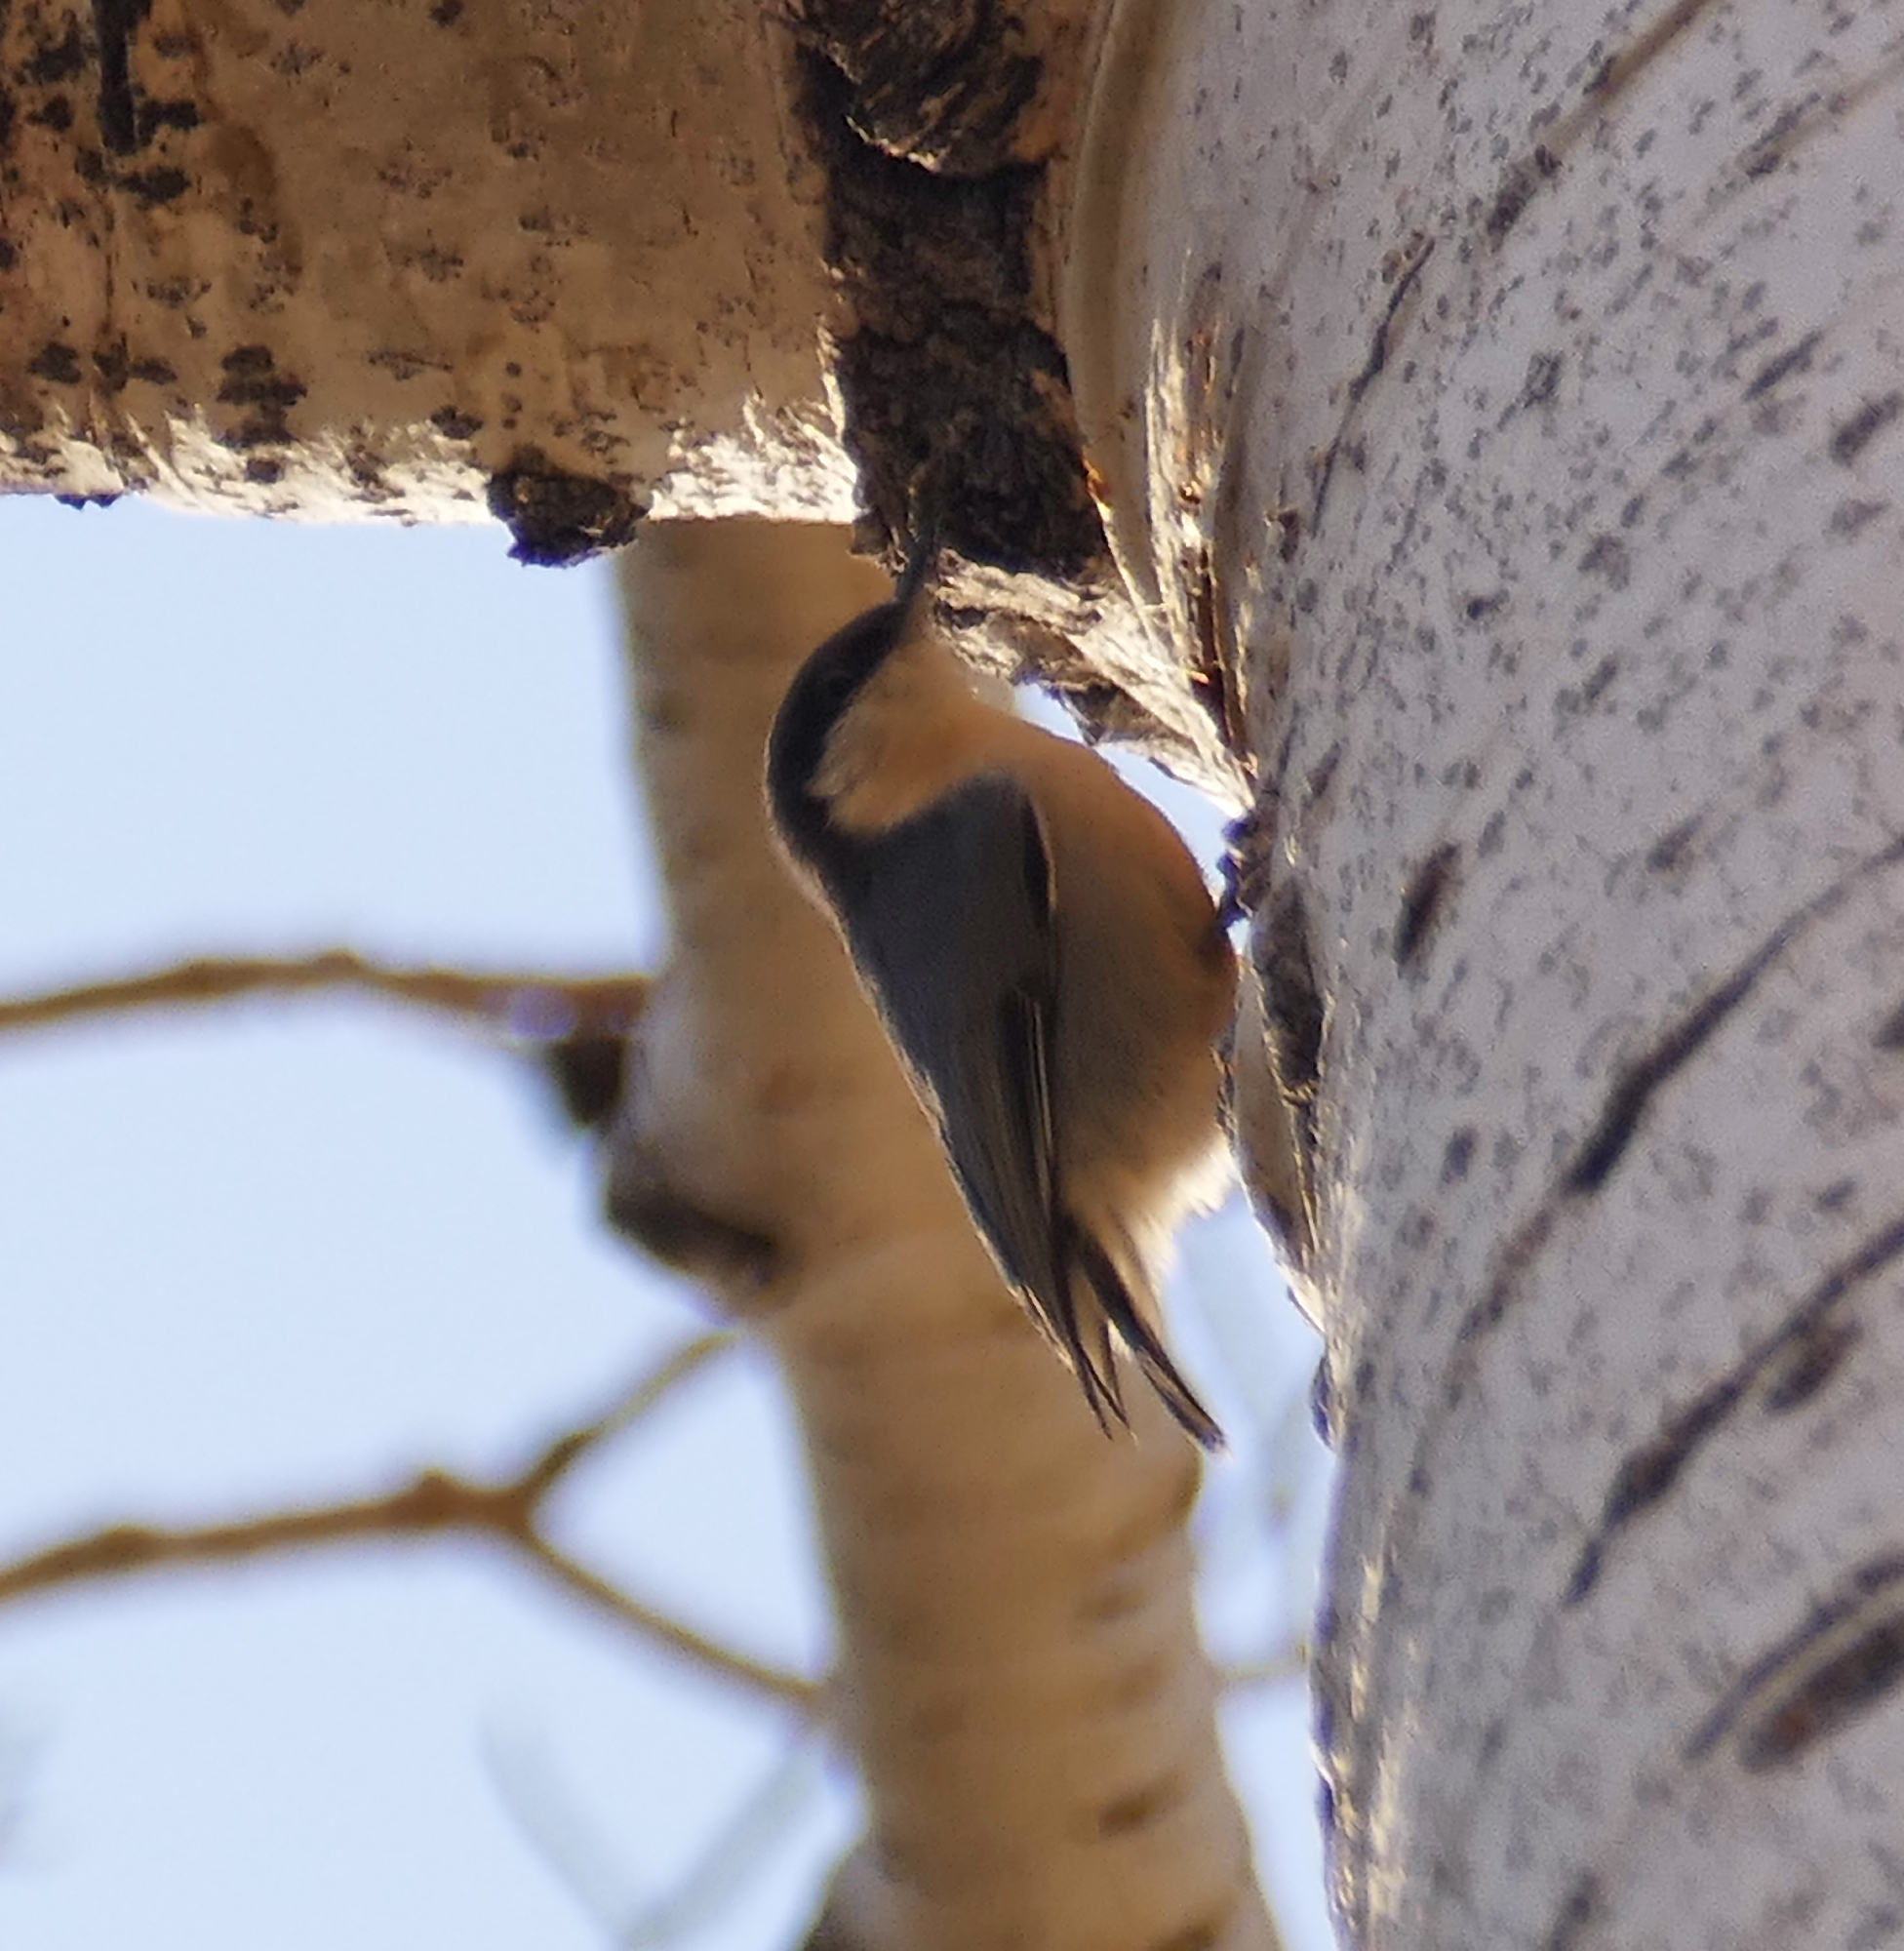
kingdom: Animalia
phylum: Chordata
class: Aves
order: Passeriformes
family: Sittidae
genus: Sitta
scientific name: Sitta pygmaea
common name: Pygmy nuthatch
